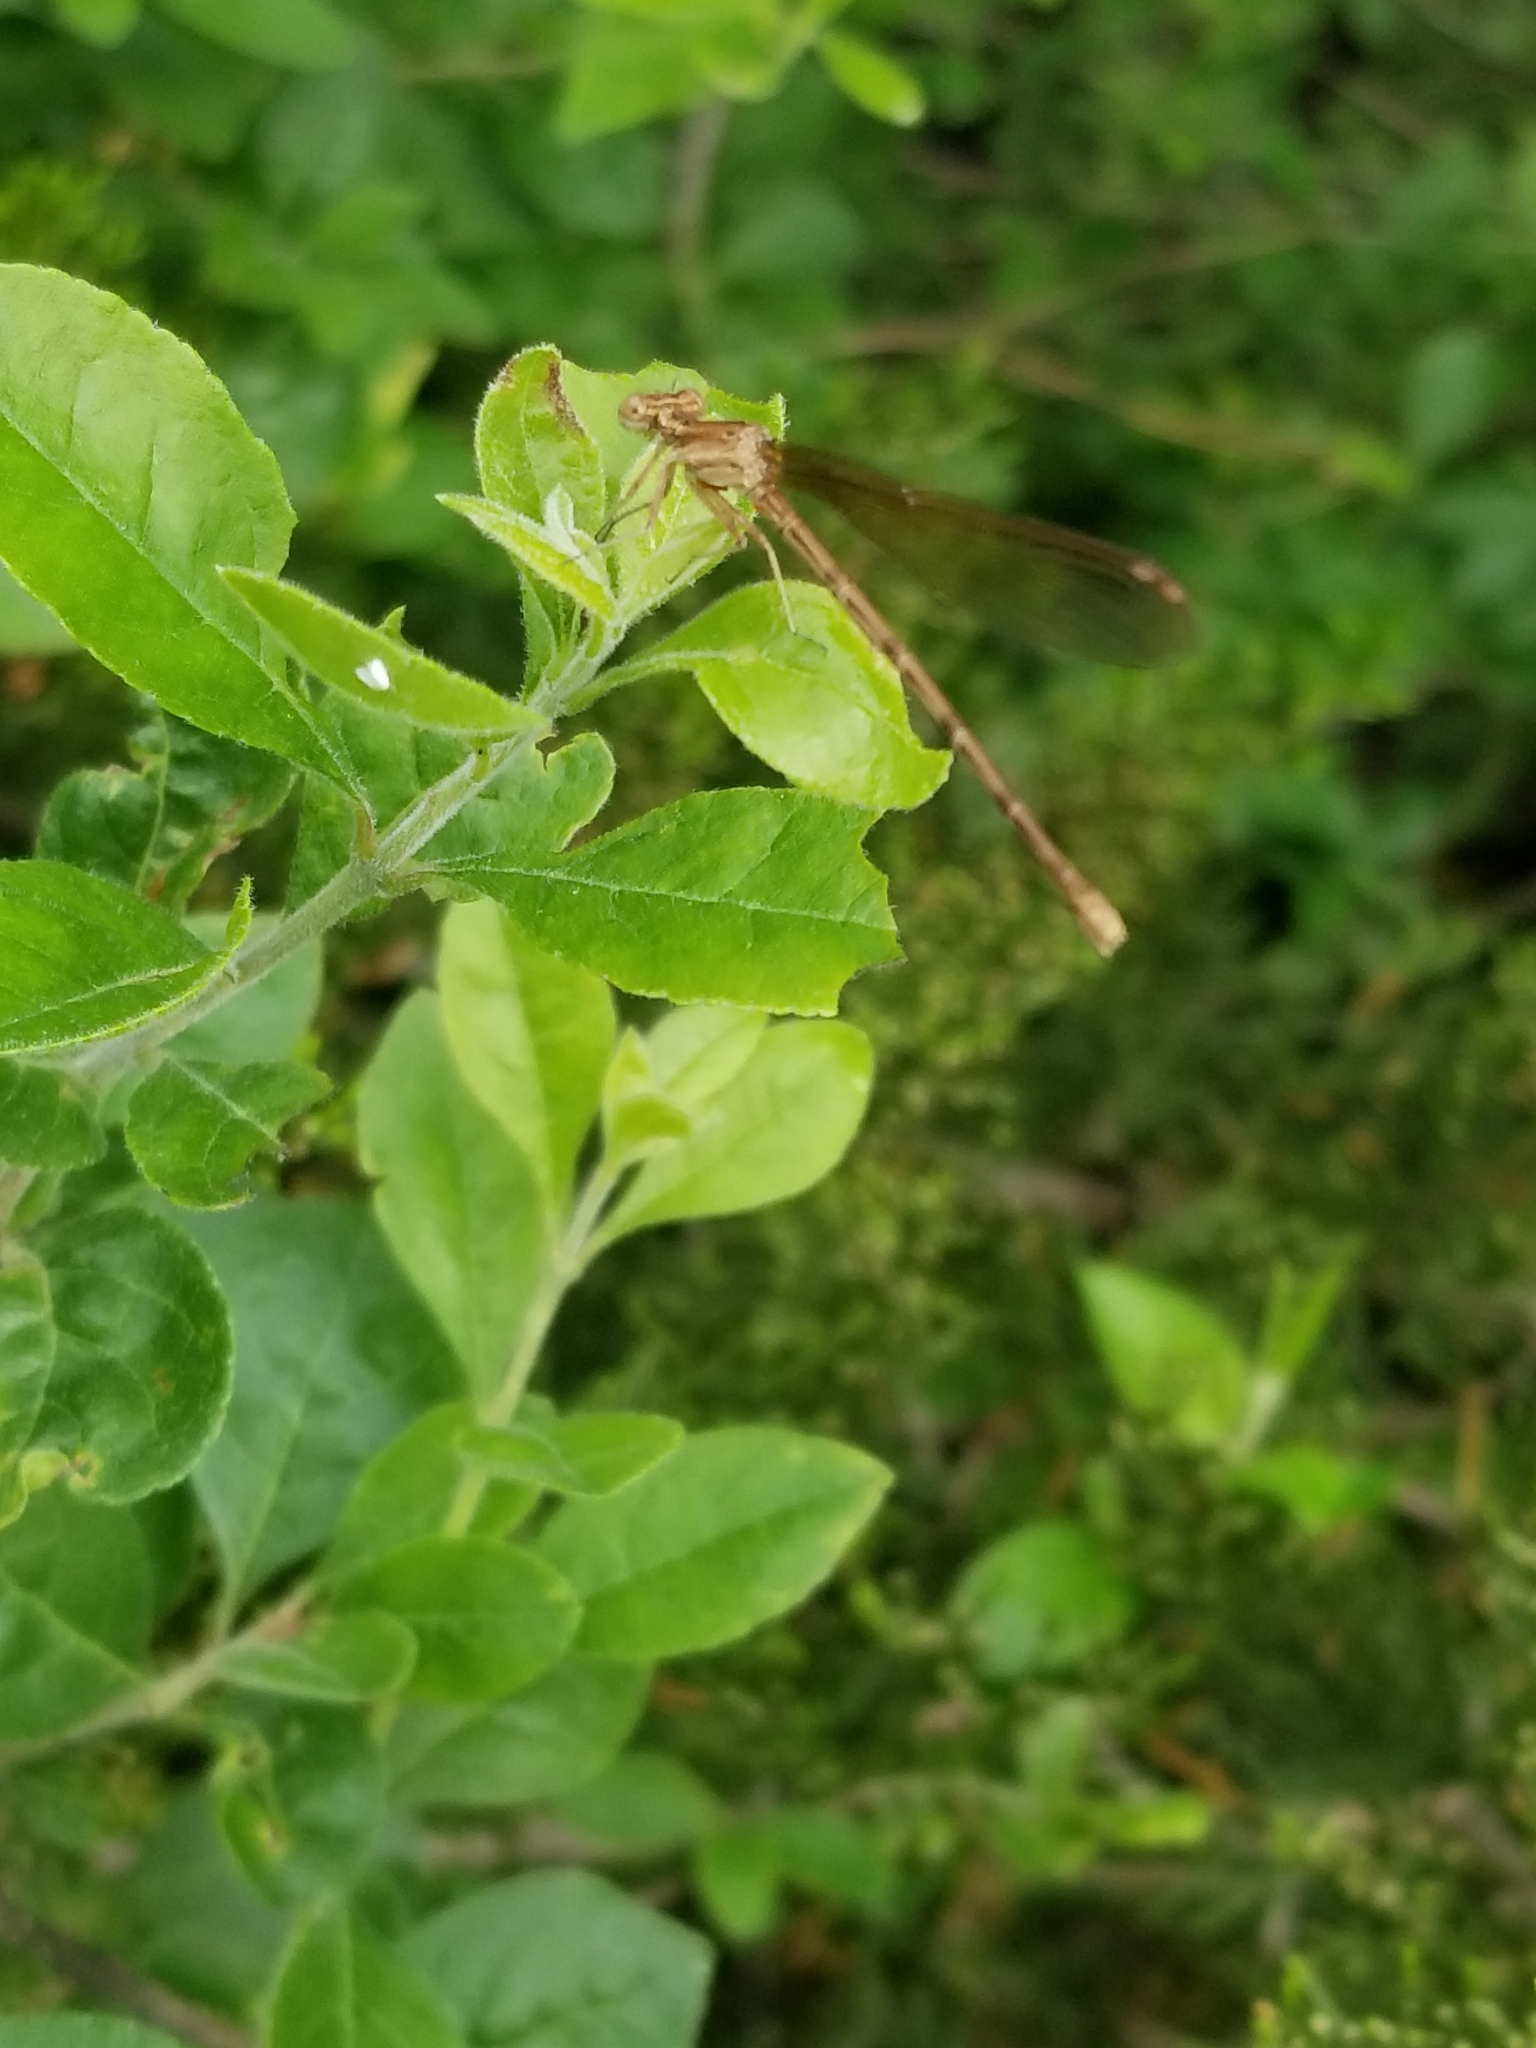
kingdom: Animalia
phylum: Arthropoda
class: Insecta
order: Odonata
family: Coenagrionidae
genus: Argia
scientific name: Argia sedula
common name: Blue-ringed dancer
